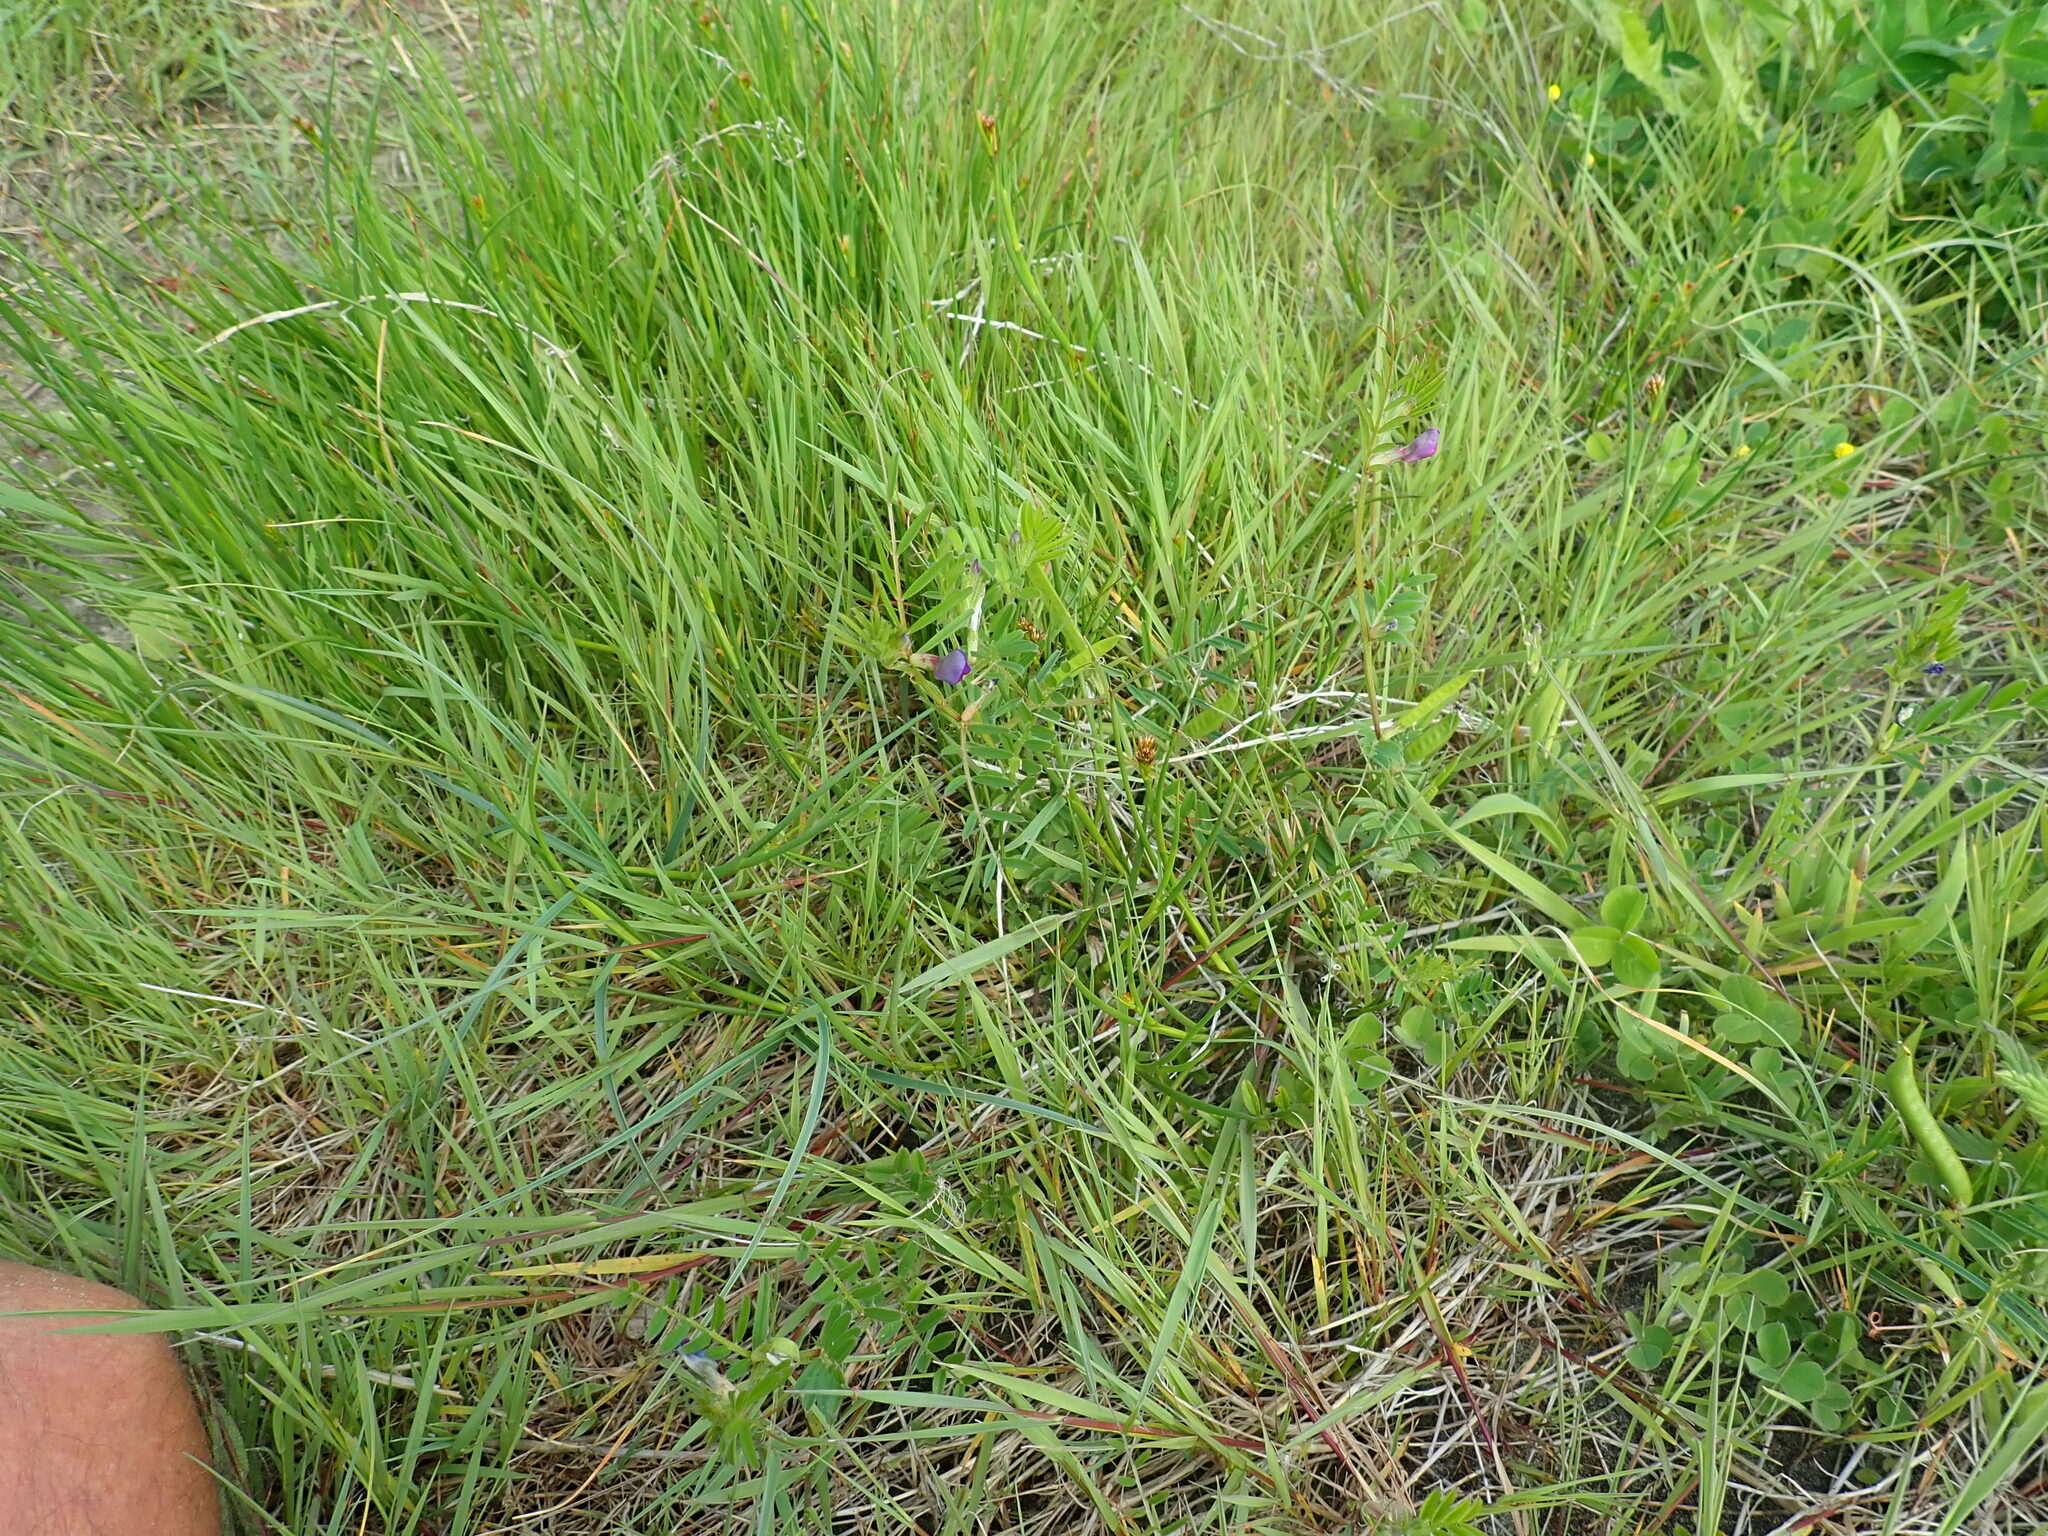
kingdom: Plantae
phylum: Tracheophyta
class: Magnoliopsida
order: Fabales
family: Fabaceae
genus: Vicia
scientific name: Vicia sativa
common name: Garden vetch
